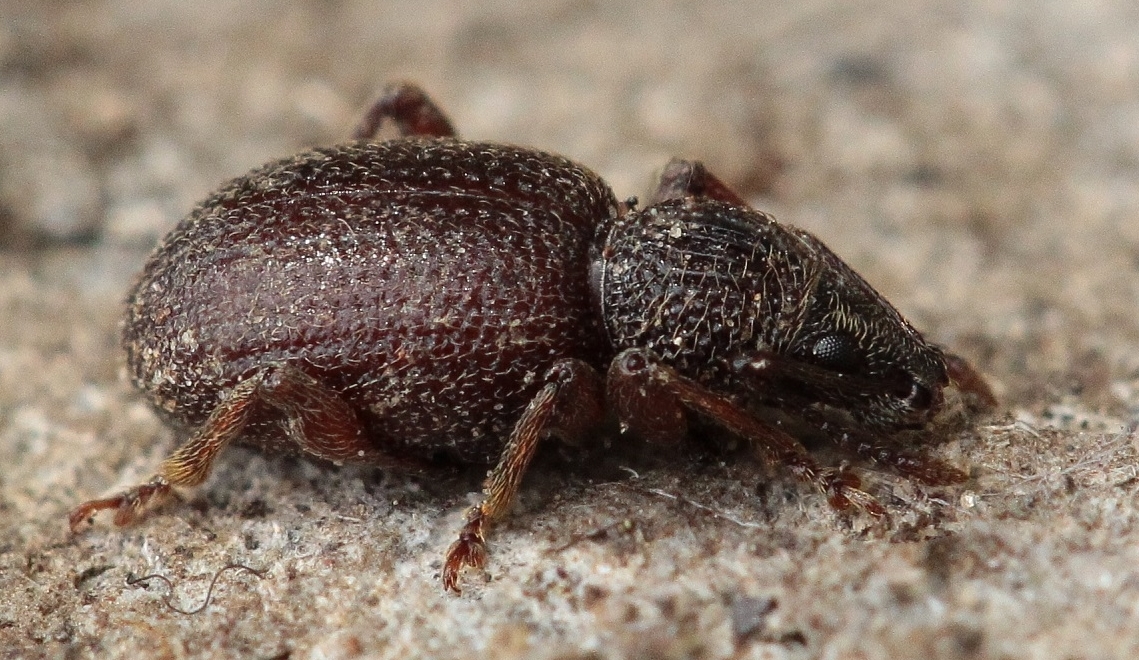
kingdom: Animalia
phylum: Arthropoda
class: Insecta
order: Coleoptera
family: Curculionidae
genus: Otiorhynchus
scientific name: Otiorhynchus ovatus
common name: Strawberry root weevil
